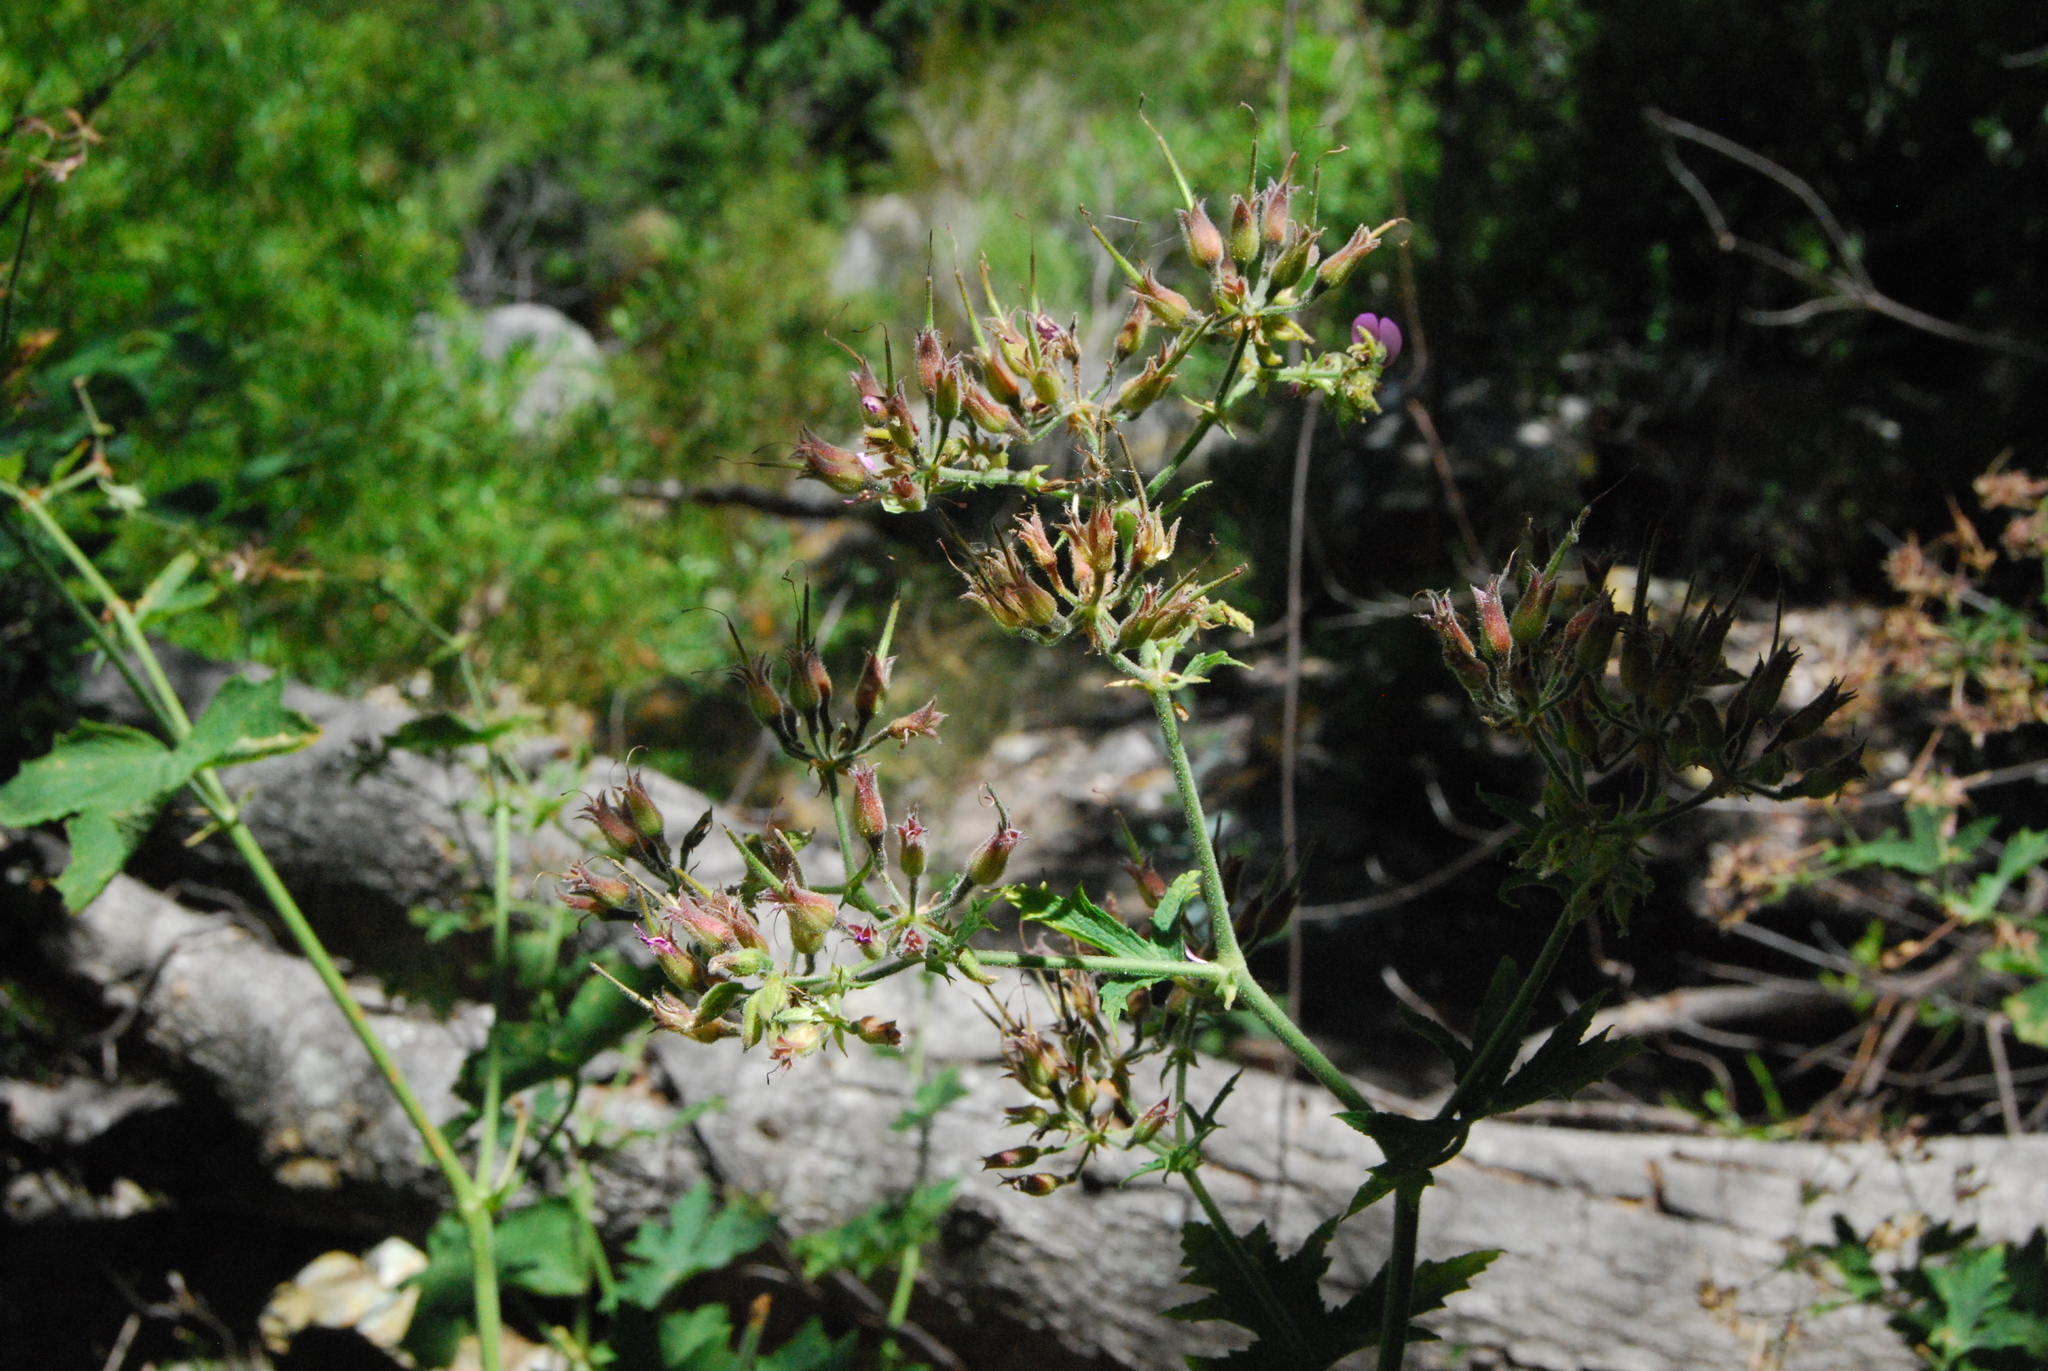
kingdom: Plantae
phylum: Tracheophyta
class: Magnoliopsida
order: Geraniales
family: Geraniaceae
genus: Pelargonium
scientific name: Pelargonium hispidum
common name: Hispid pelargonium
